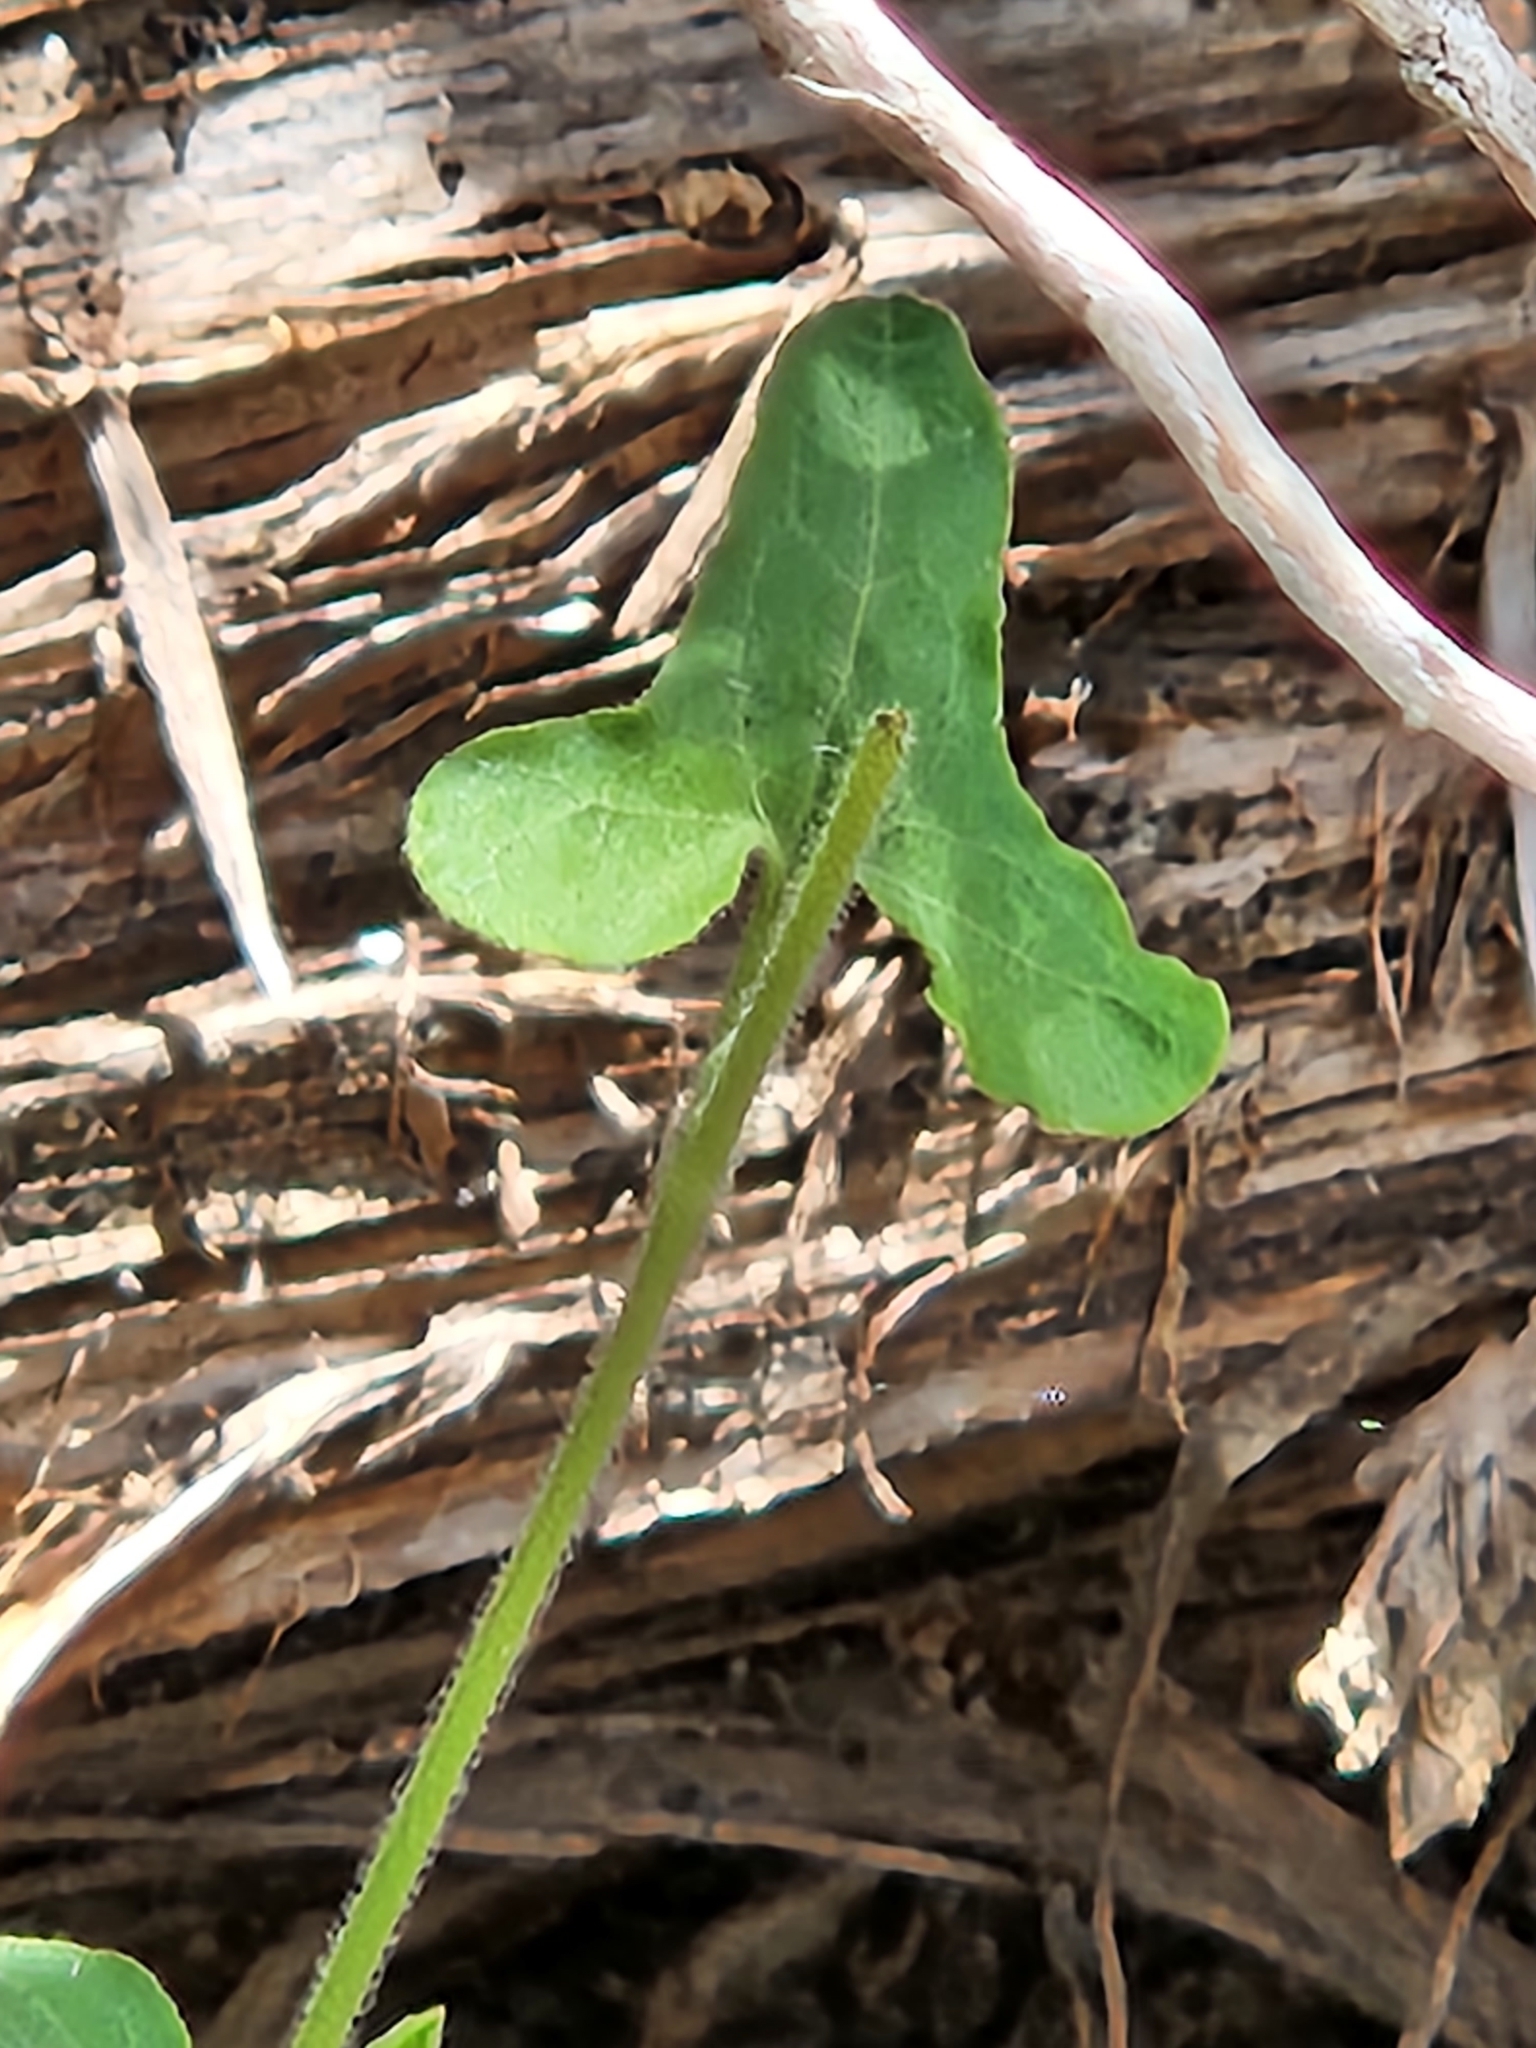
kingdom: Plantae
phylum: Tracheophyta
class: Magnoliopsida
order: Piperales
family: Aristolochiaceae
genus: Aristolochia
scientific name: Aristolochia coryi
